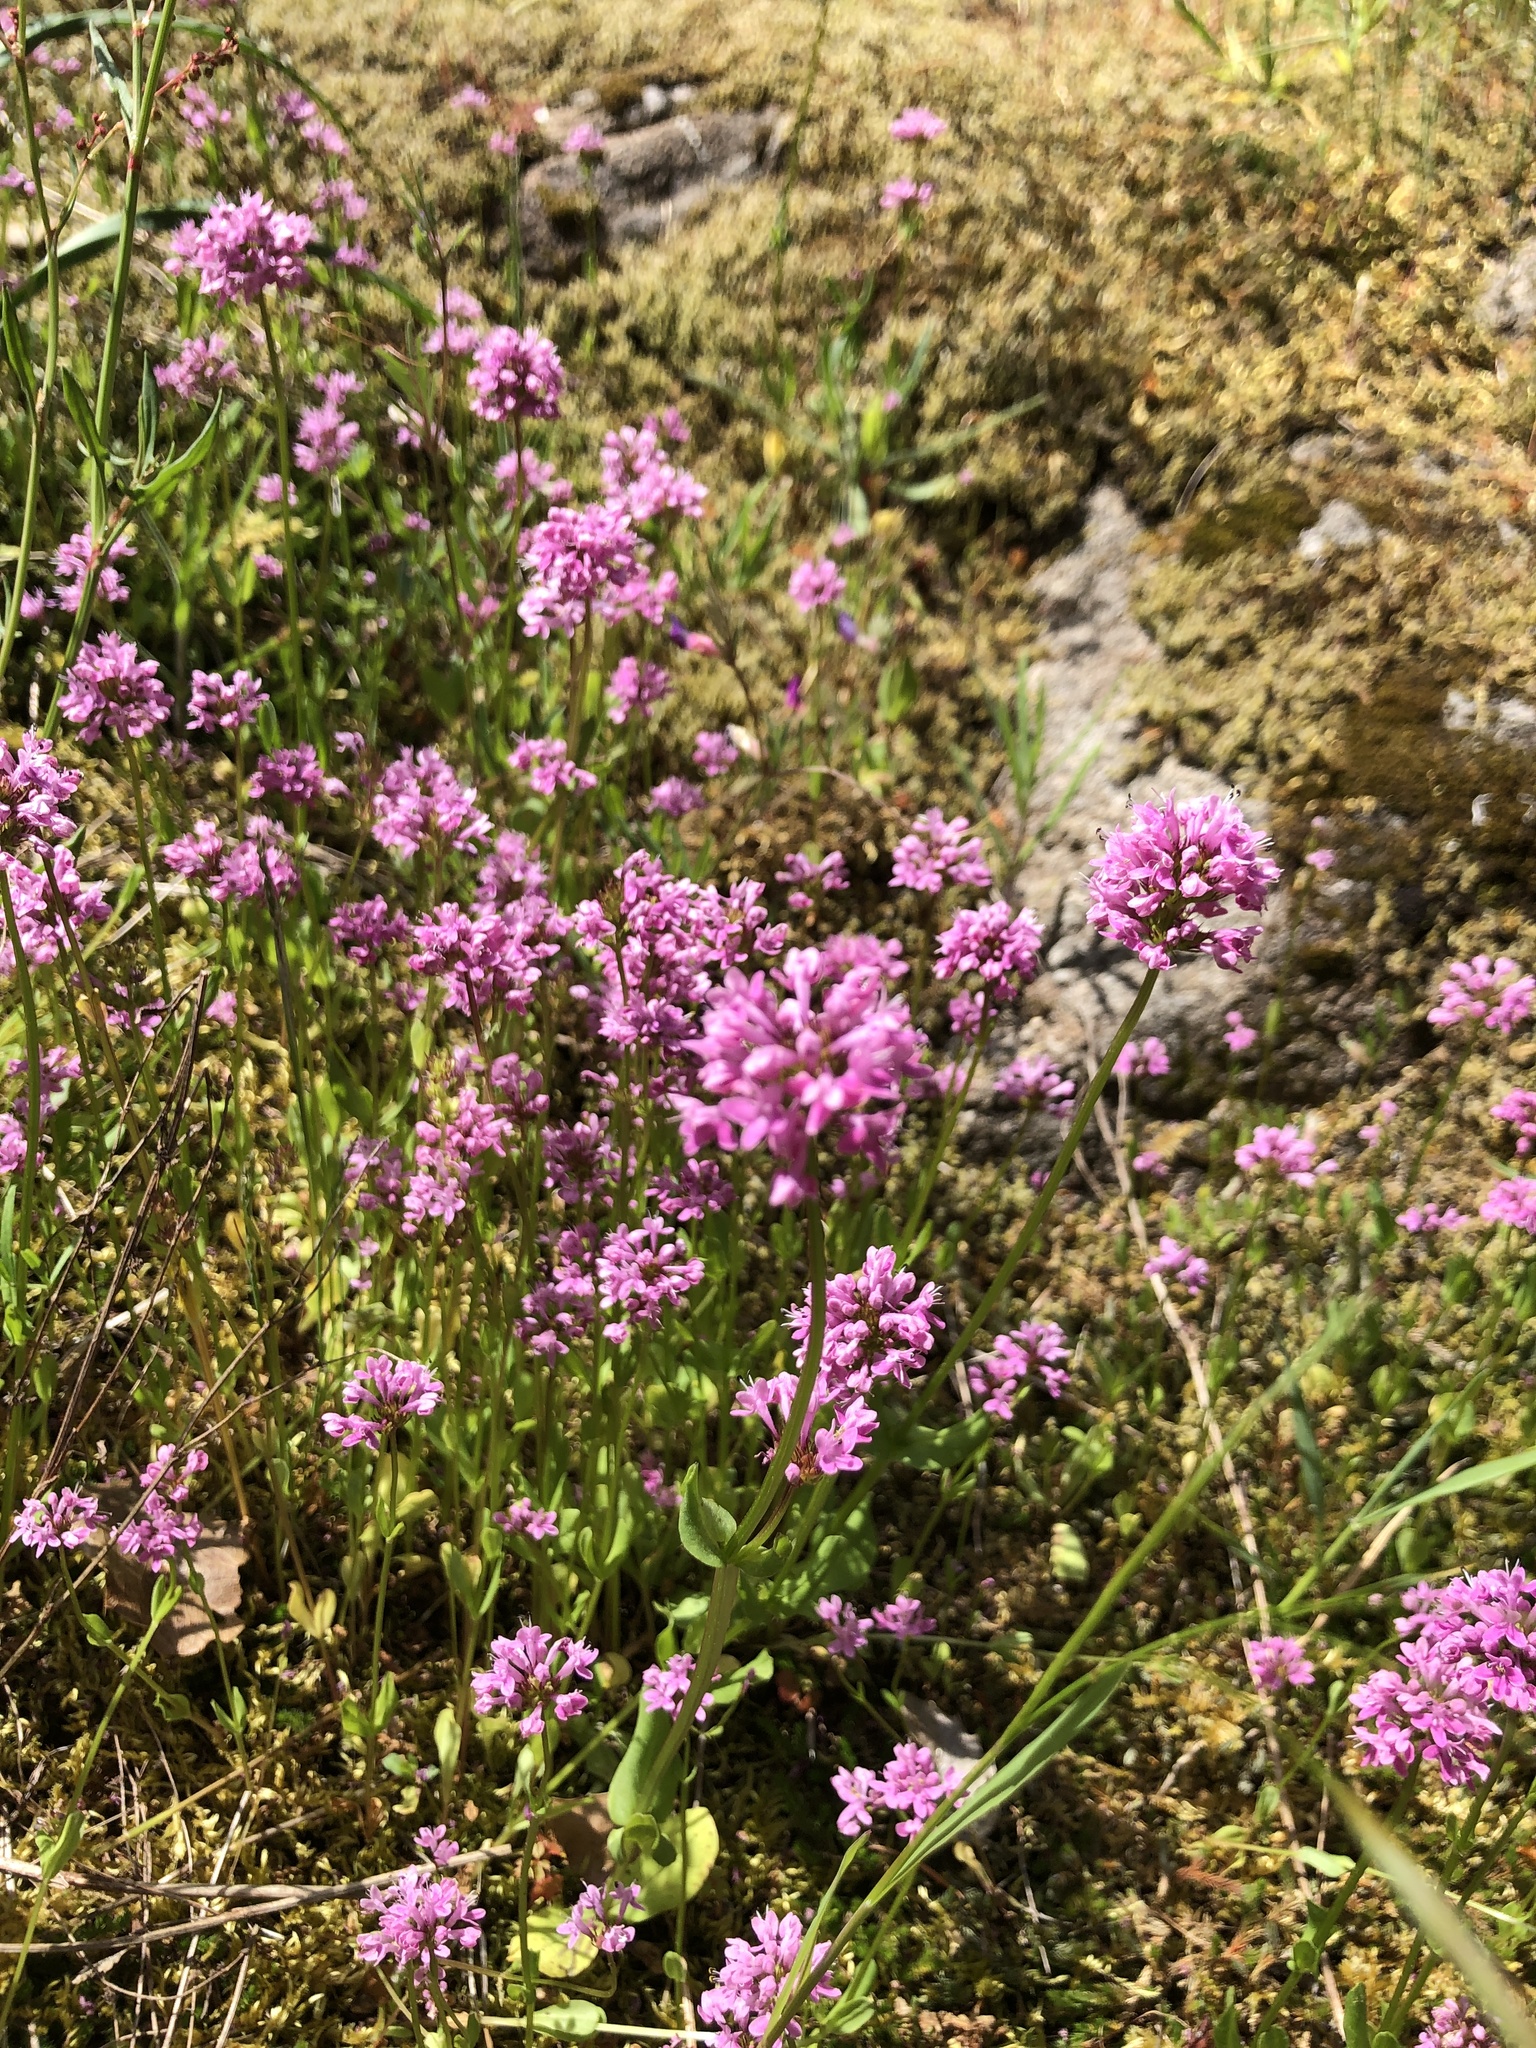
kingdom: Plantae
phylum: Tracheophyta
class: Magnoliopsida
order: Dipsacales
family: Caprifoliaceae
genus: Plectritis
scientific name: Plectritis congesta
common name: Pink plectritis
